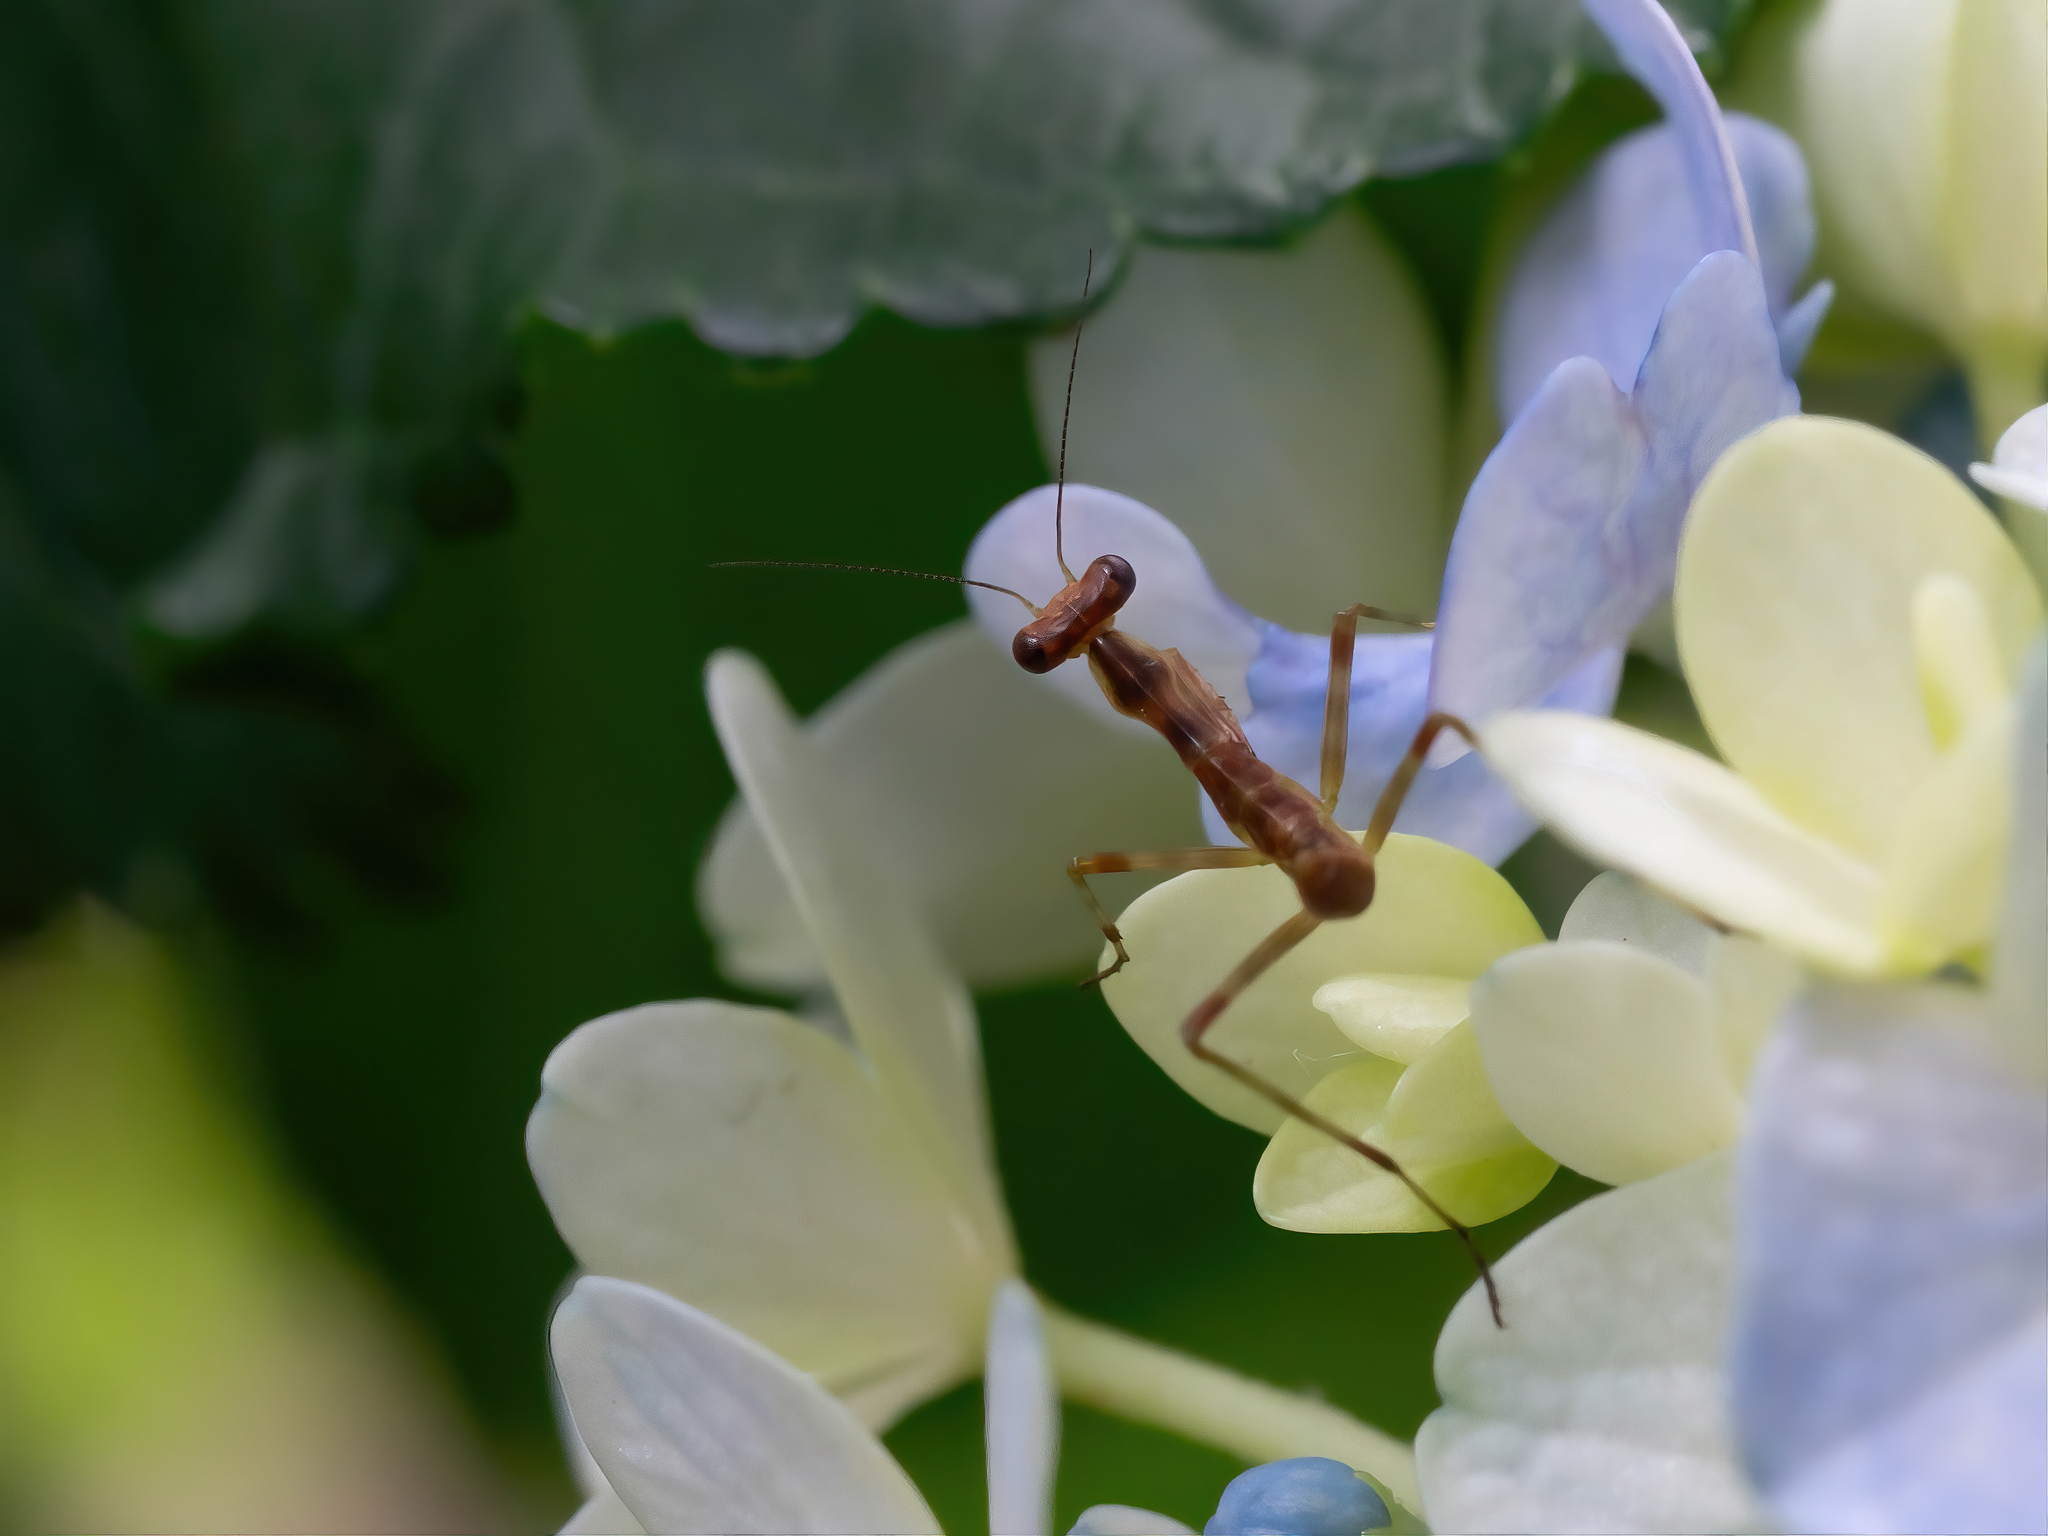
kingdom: Animalia
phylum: Arthropoda
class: Insecta
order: Mantodea
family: Mantidae
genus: Stagmatoptera
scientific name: Stagmatoptera hyaloptera
